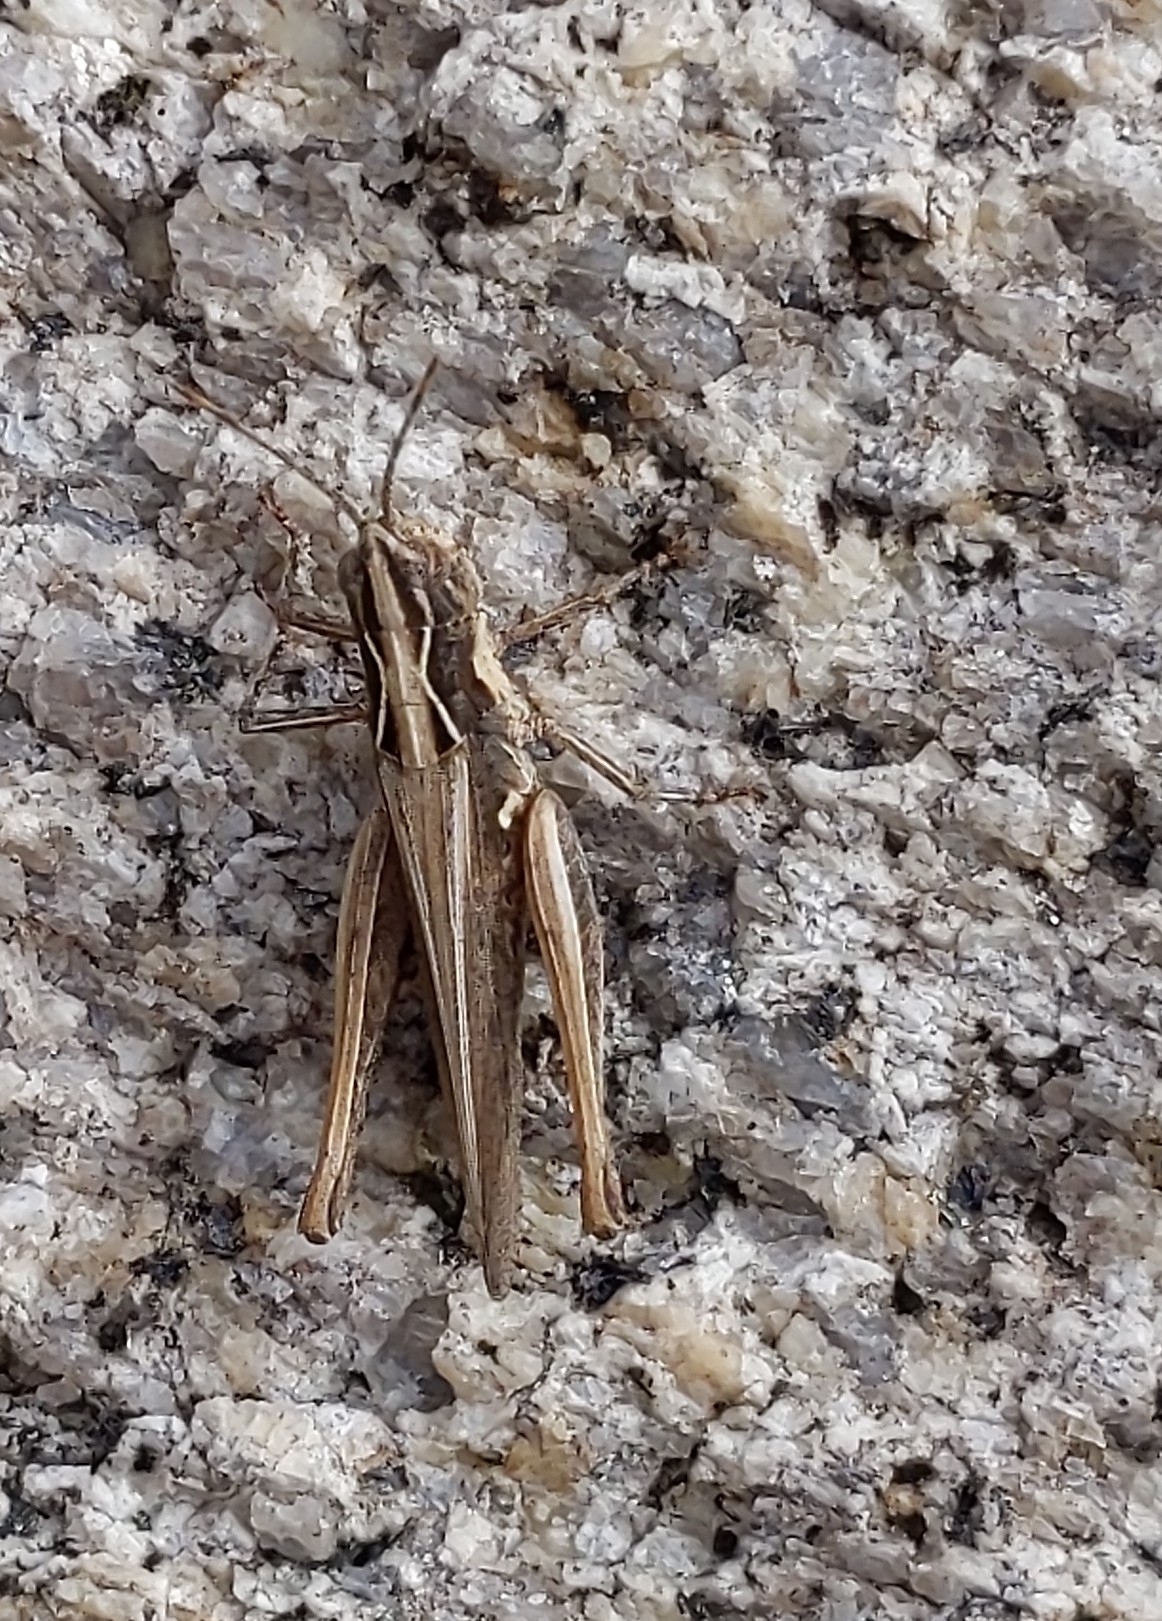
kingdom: Animalia
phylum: Arthropoda
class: Insecta
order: Orthoptera
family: Acrididae
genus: Horesidotes
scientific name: Horesidotes cinereus
